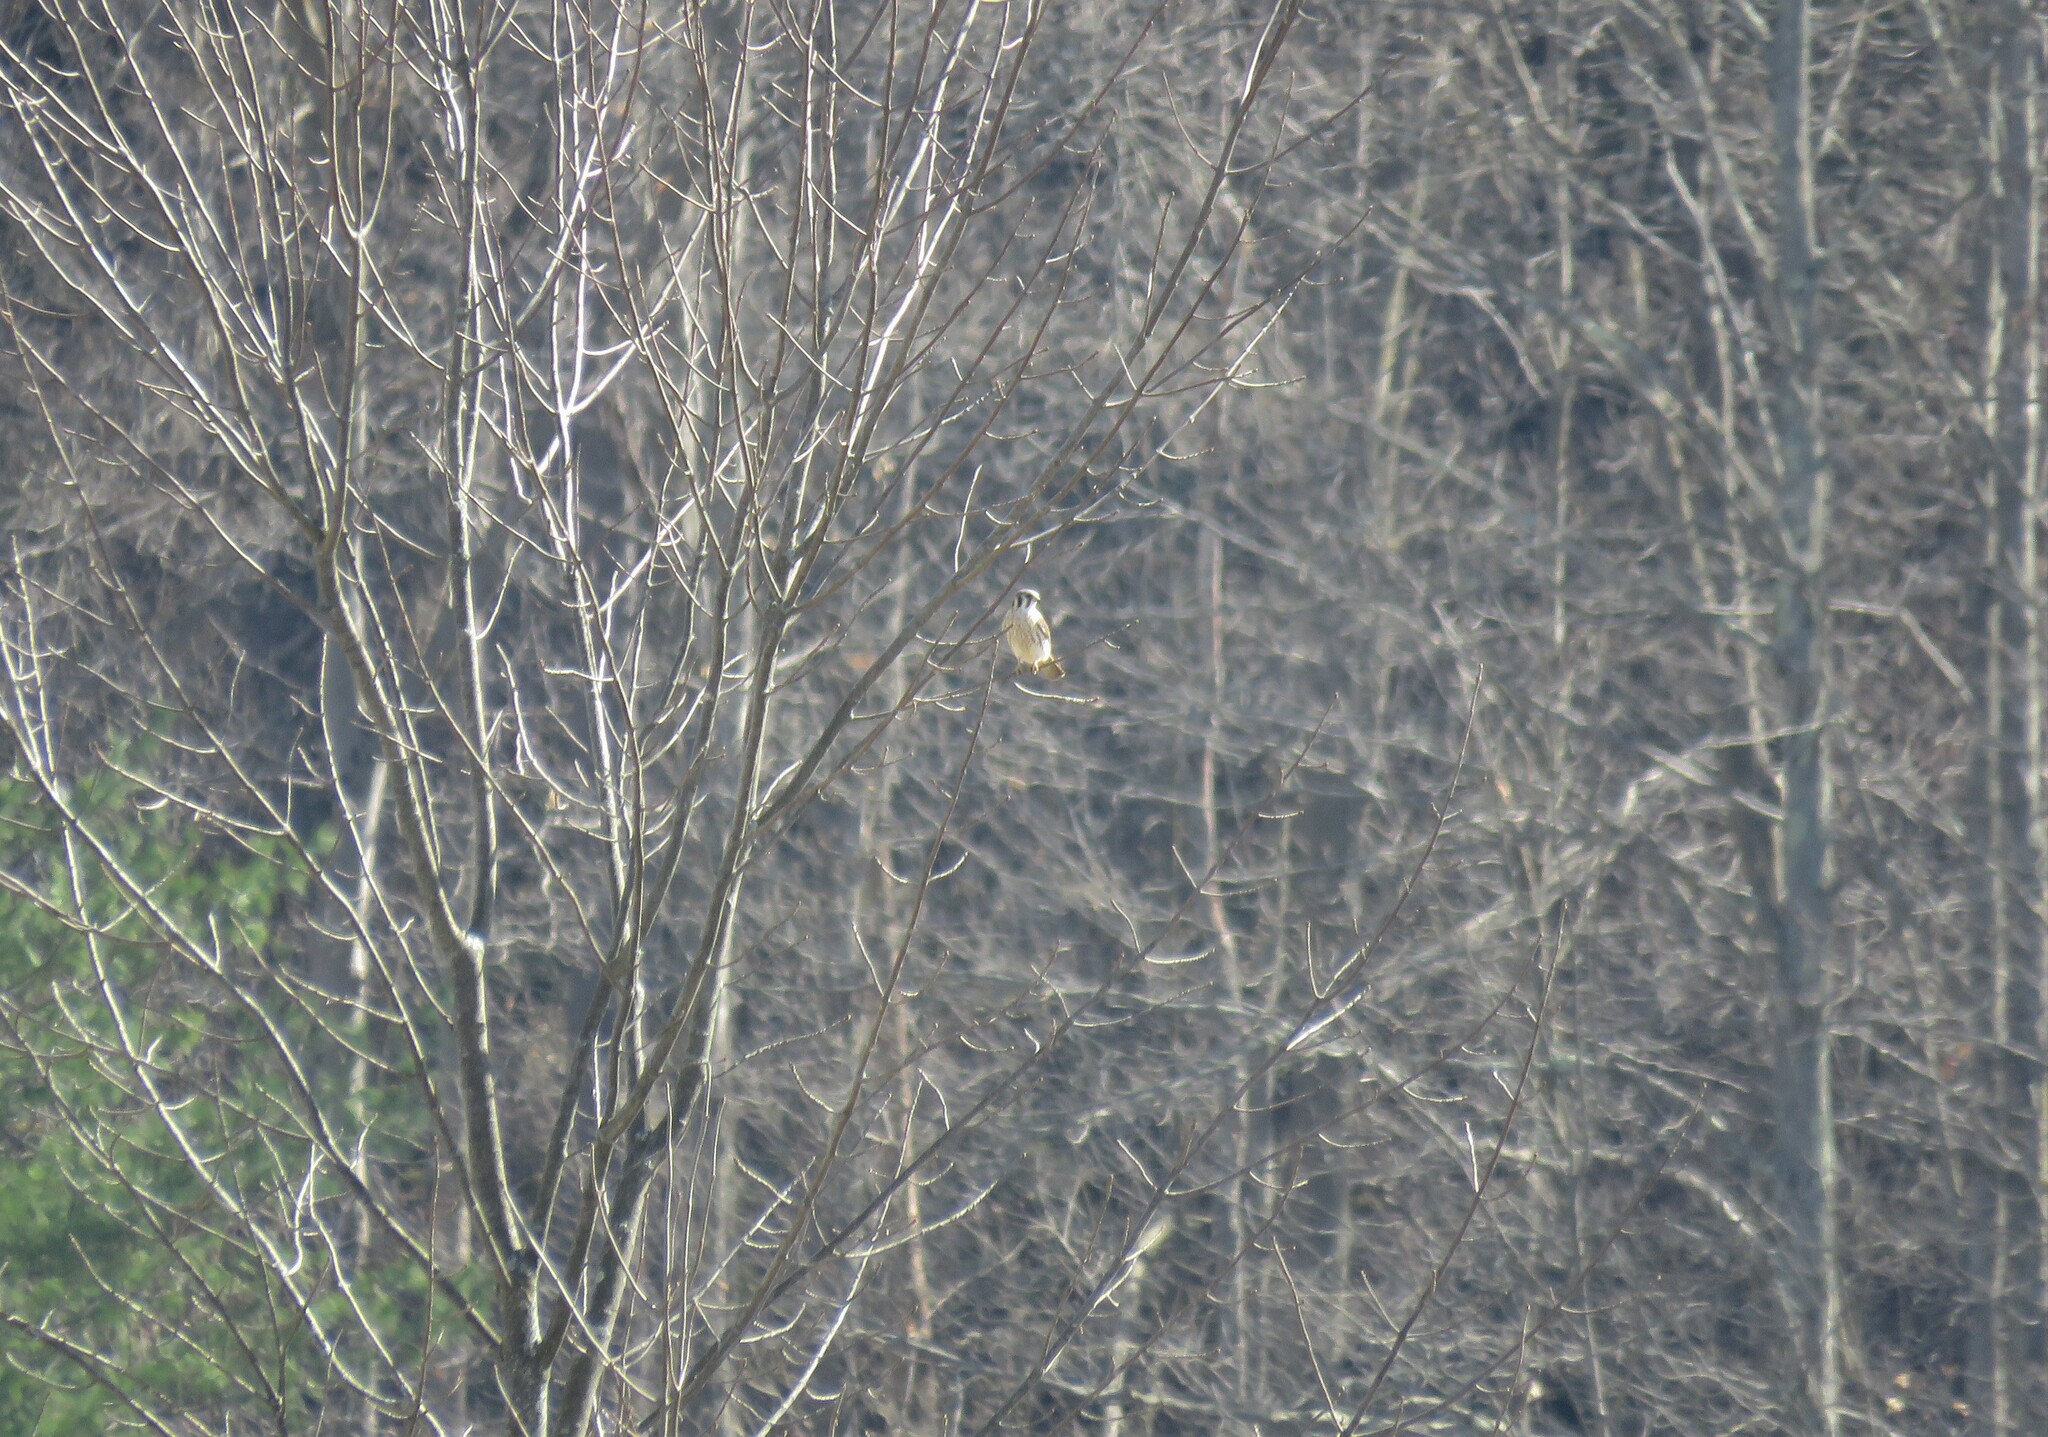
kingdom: Animalia
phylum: Chordata
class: Aves
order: Falconiformes
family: Falconidae
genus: Falco
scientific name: Falco sparverius
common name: American kestrel
